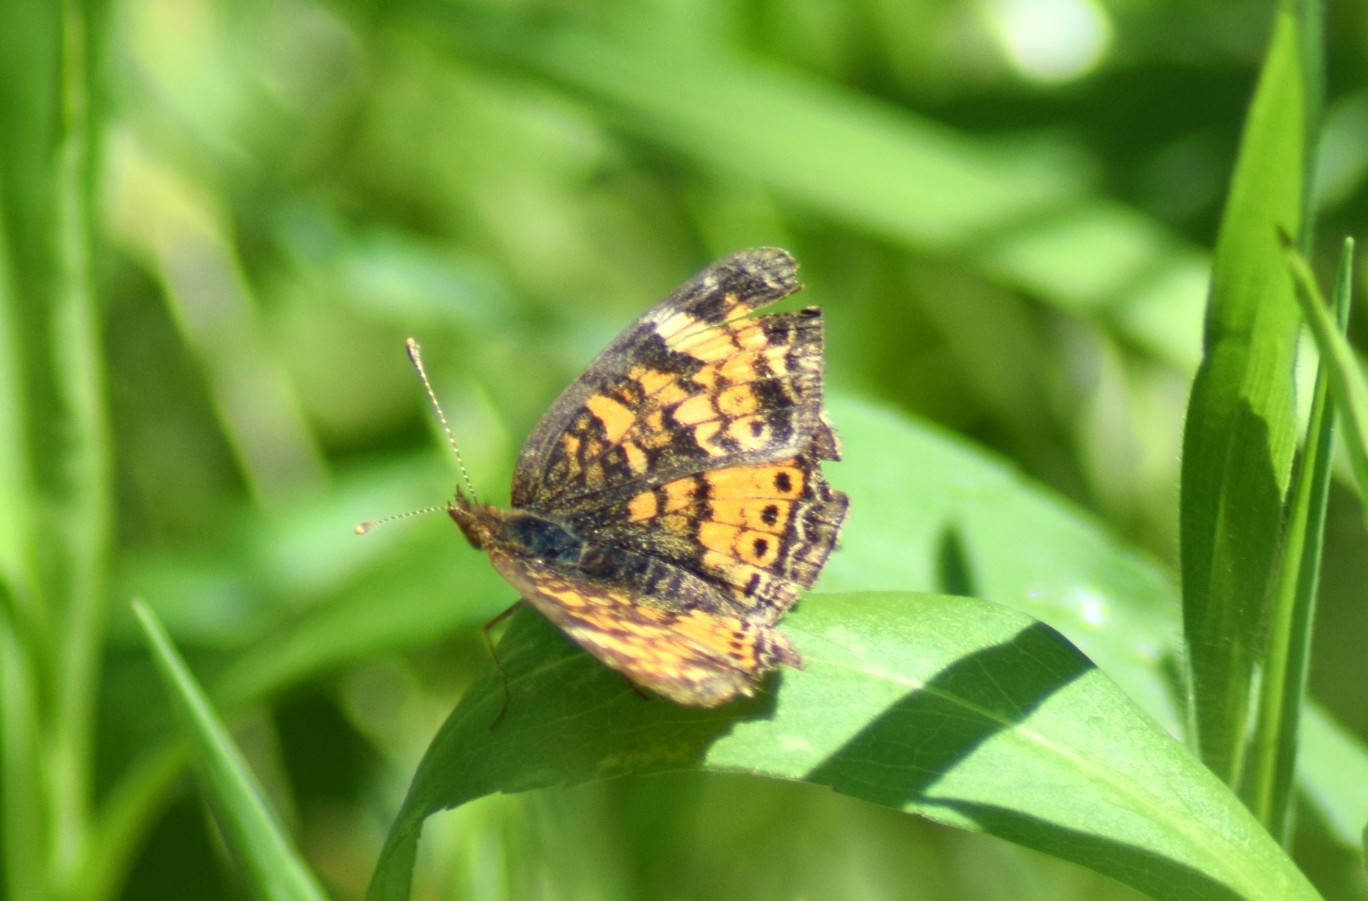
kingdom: Animalia
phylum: Arthropoda
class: Insecta
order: Lepidoptera
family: Nymphalidae
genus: Phyciodes
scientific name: Phyciodes tharos
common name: Pearl crescent
